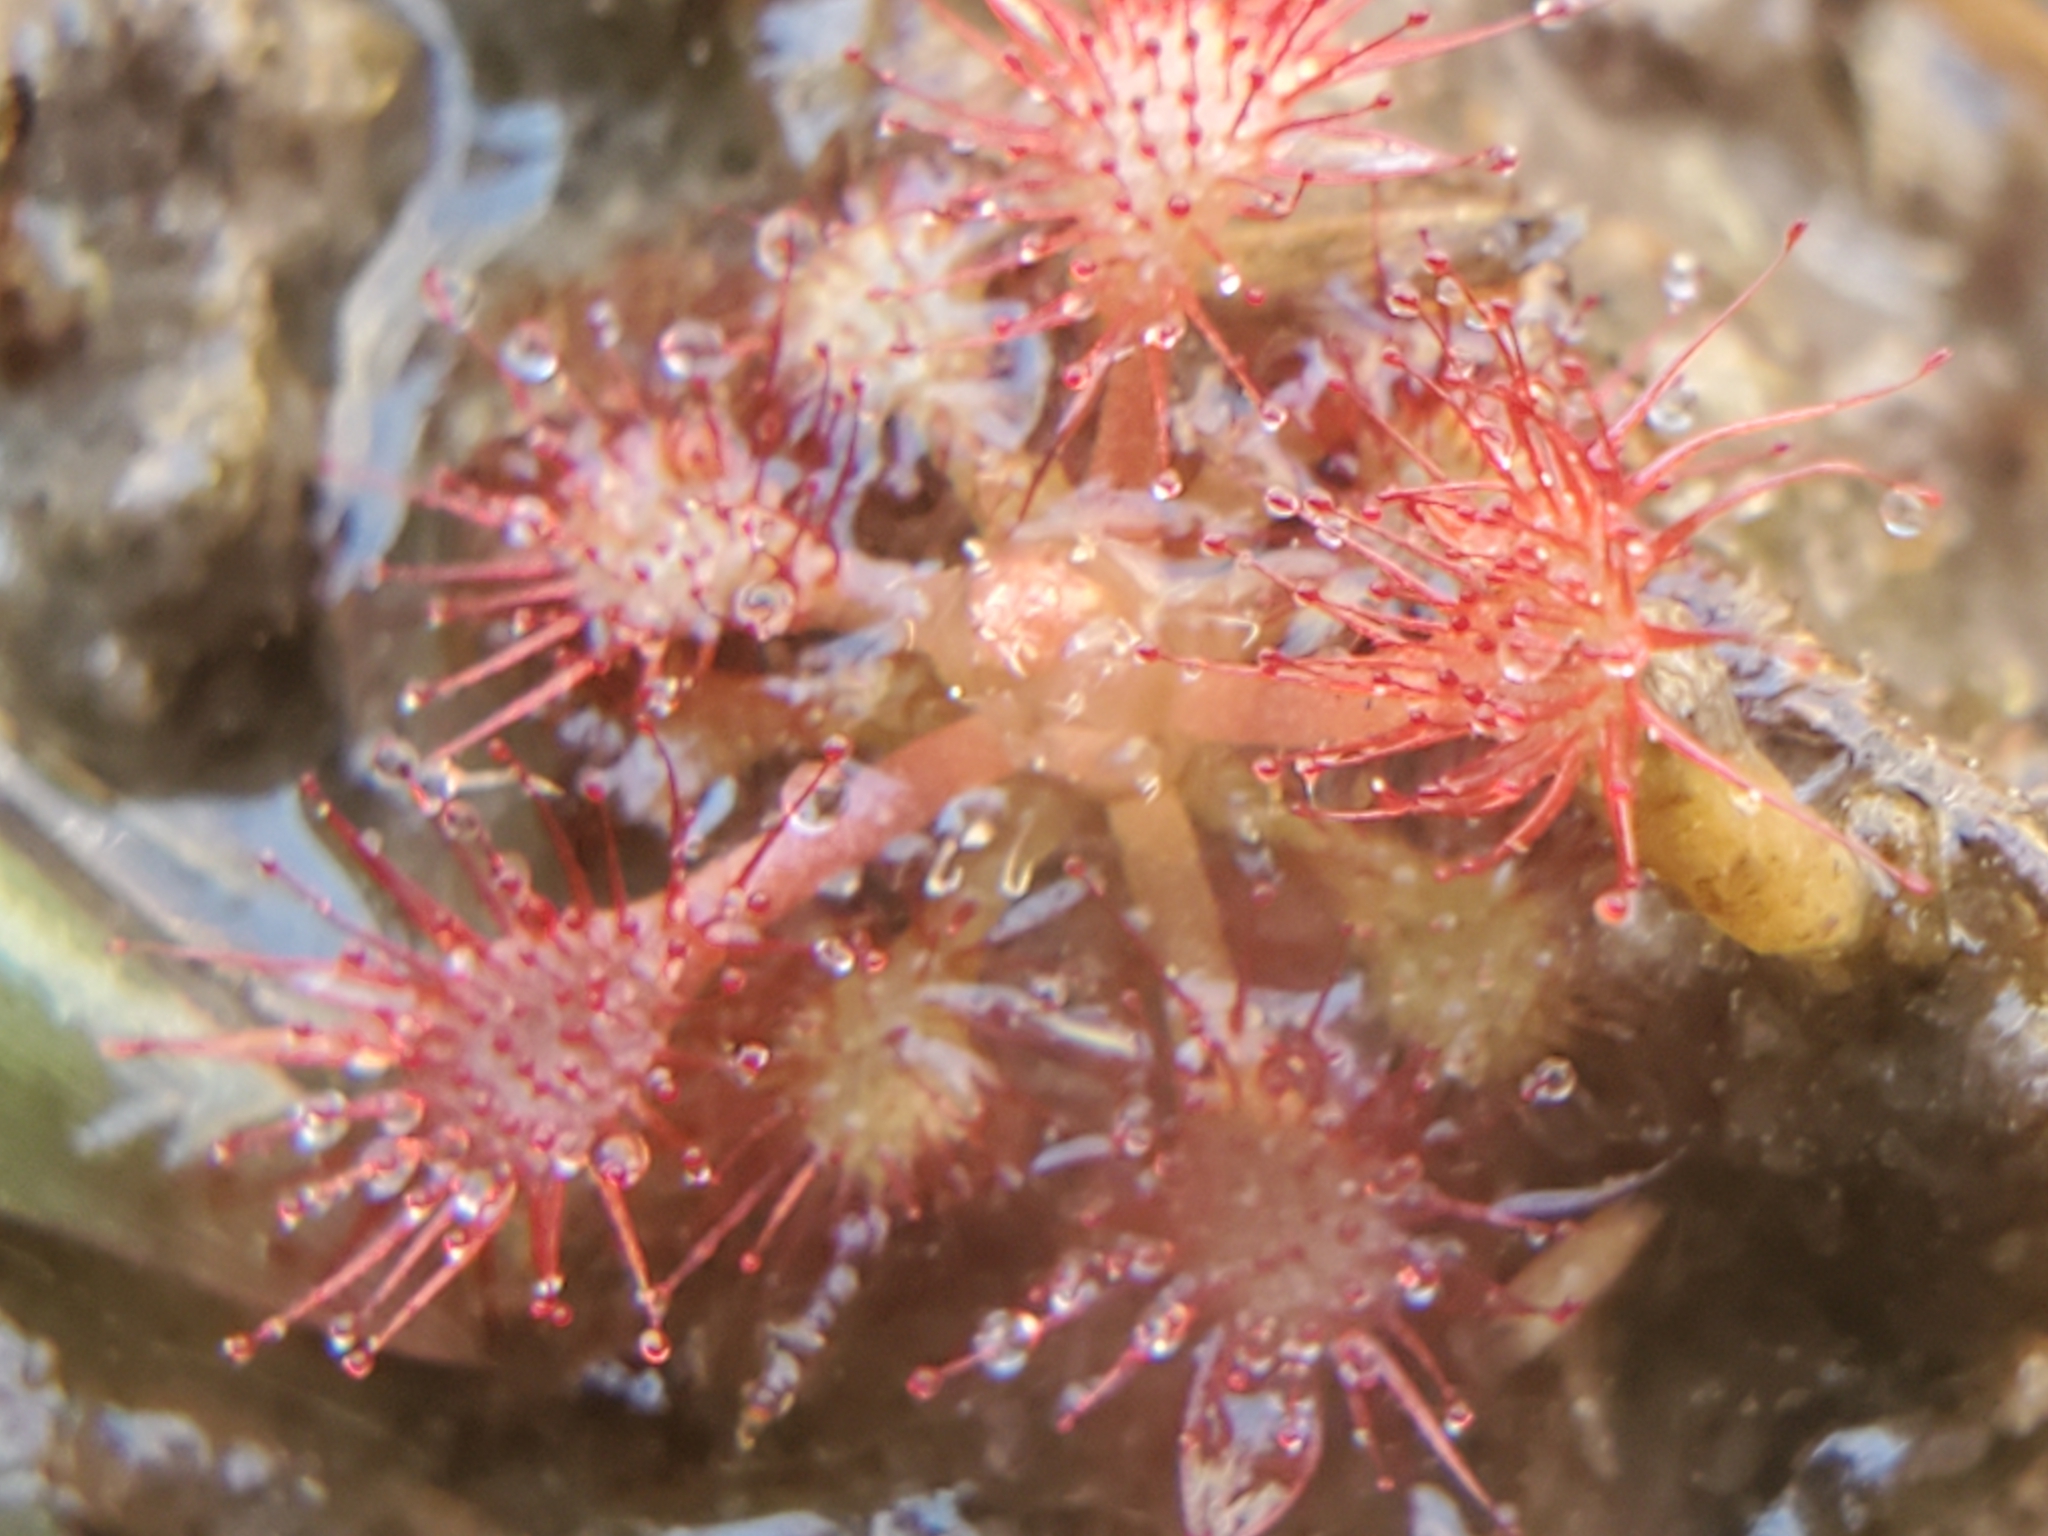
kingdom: Plantae
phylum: Tracheophyta
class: Magnoliopsida
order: Caryophyllales
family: Droseraceae
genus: Drosera
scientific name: Drosera capillaris
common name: Pink sundew
